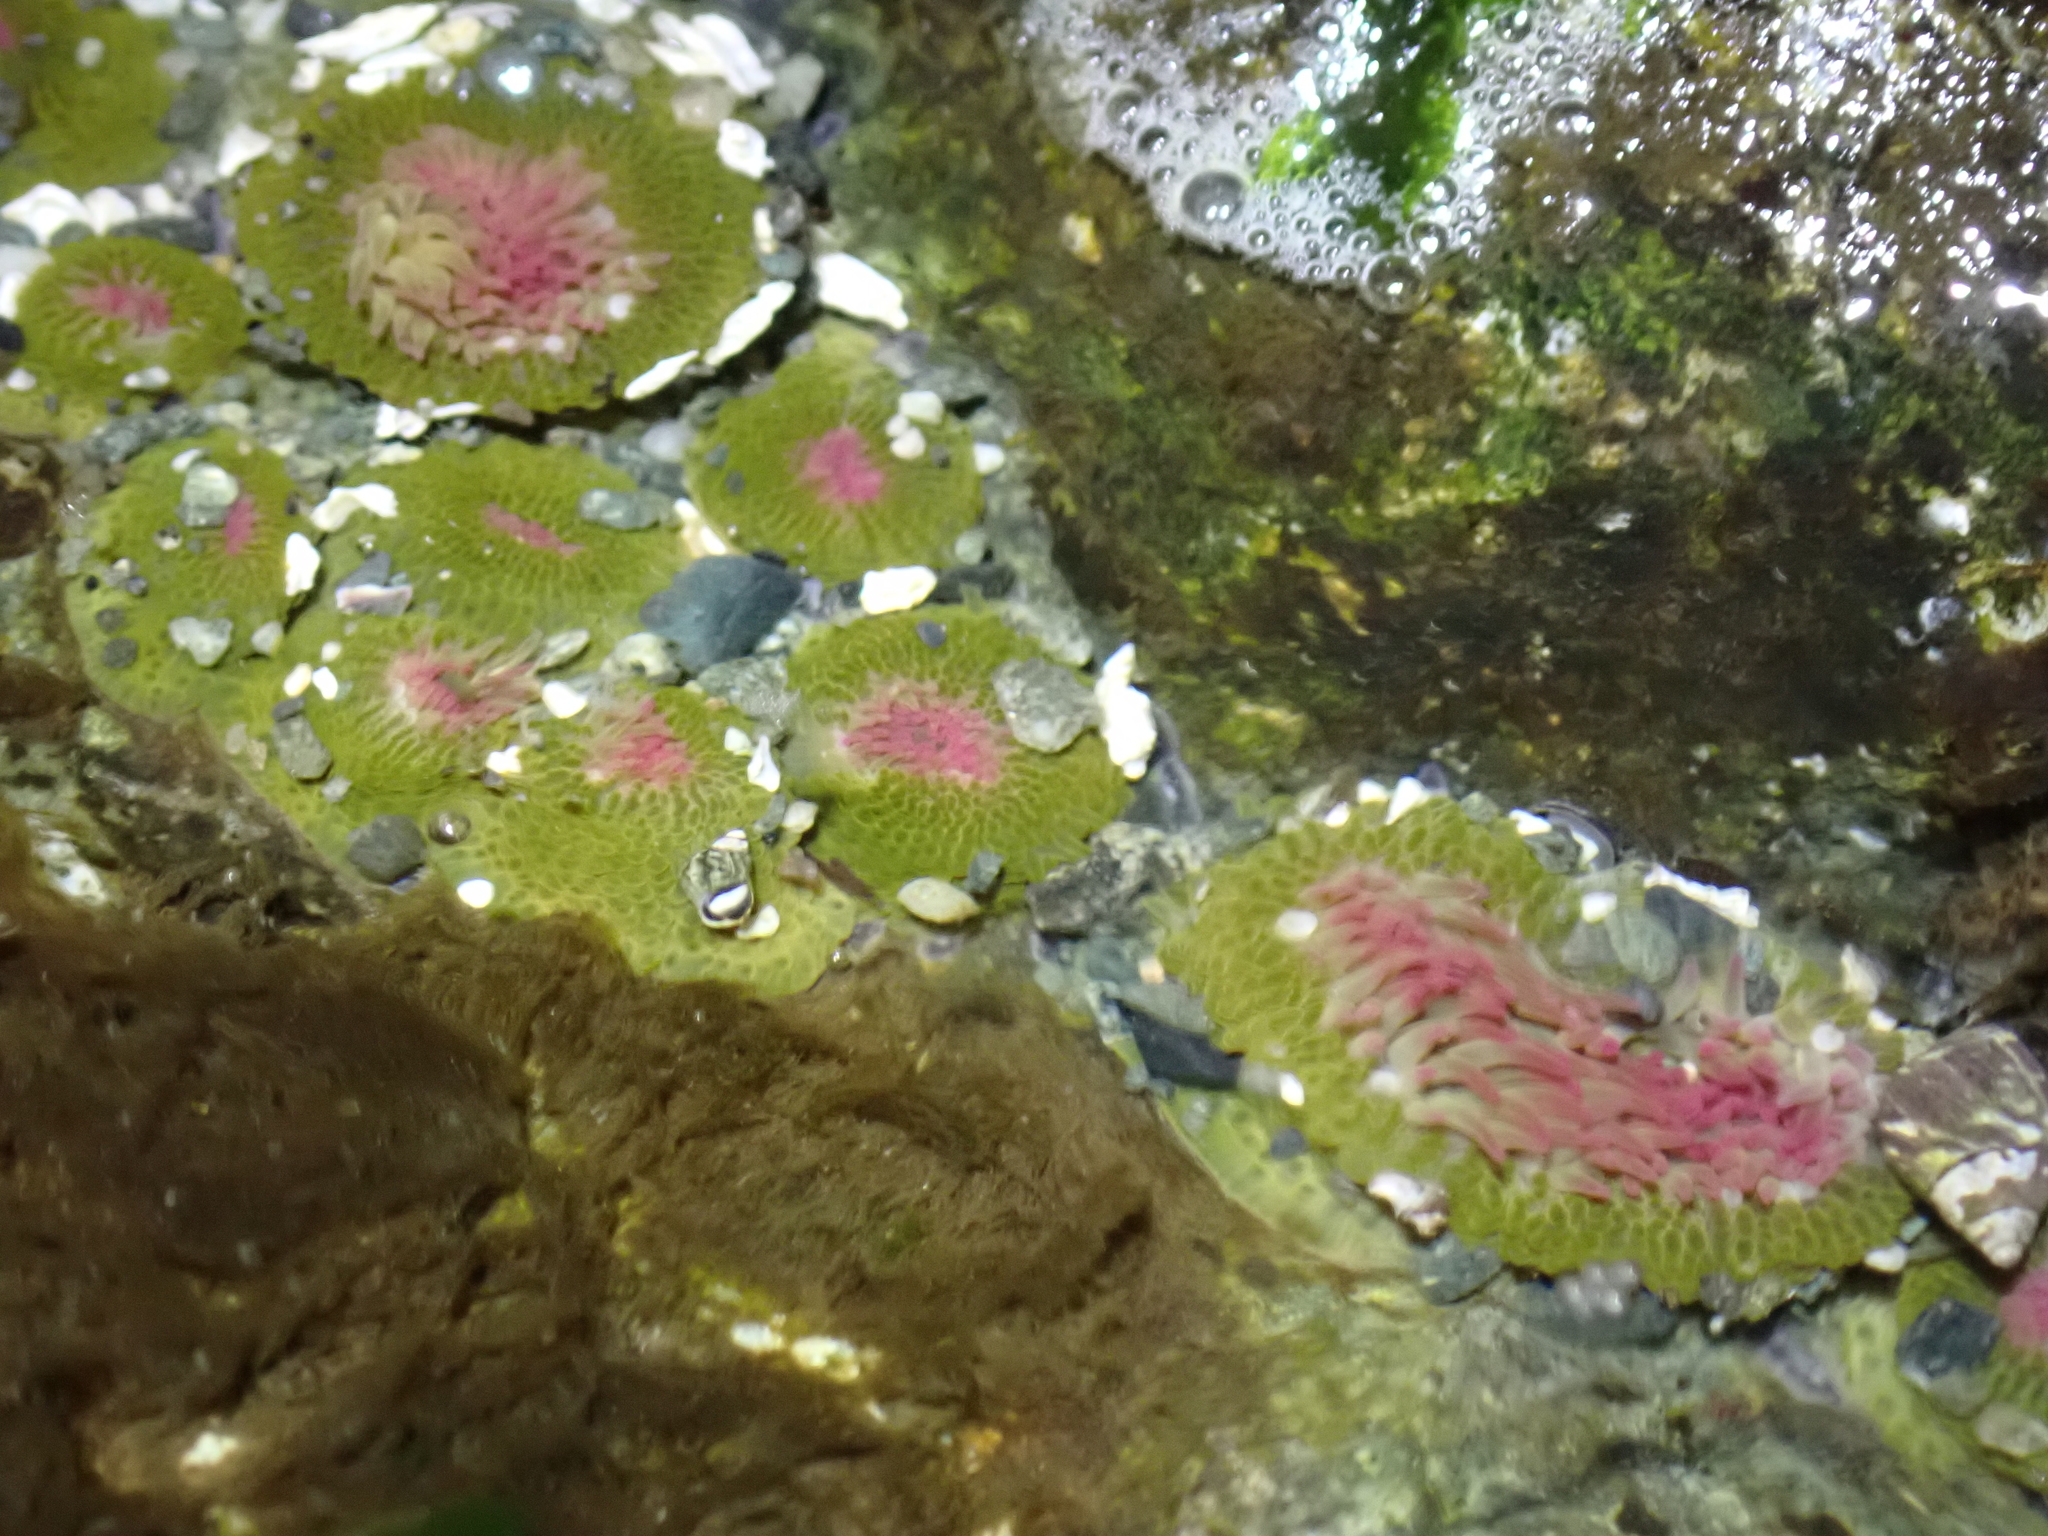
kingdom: Animalia
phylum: Cnidaria
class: Anthozoa
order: Actiniaria
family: Actiniidae
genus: Anthopleura
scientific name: Anthopleura elegantissima
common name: Clonal anemone
